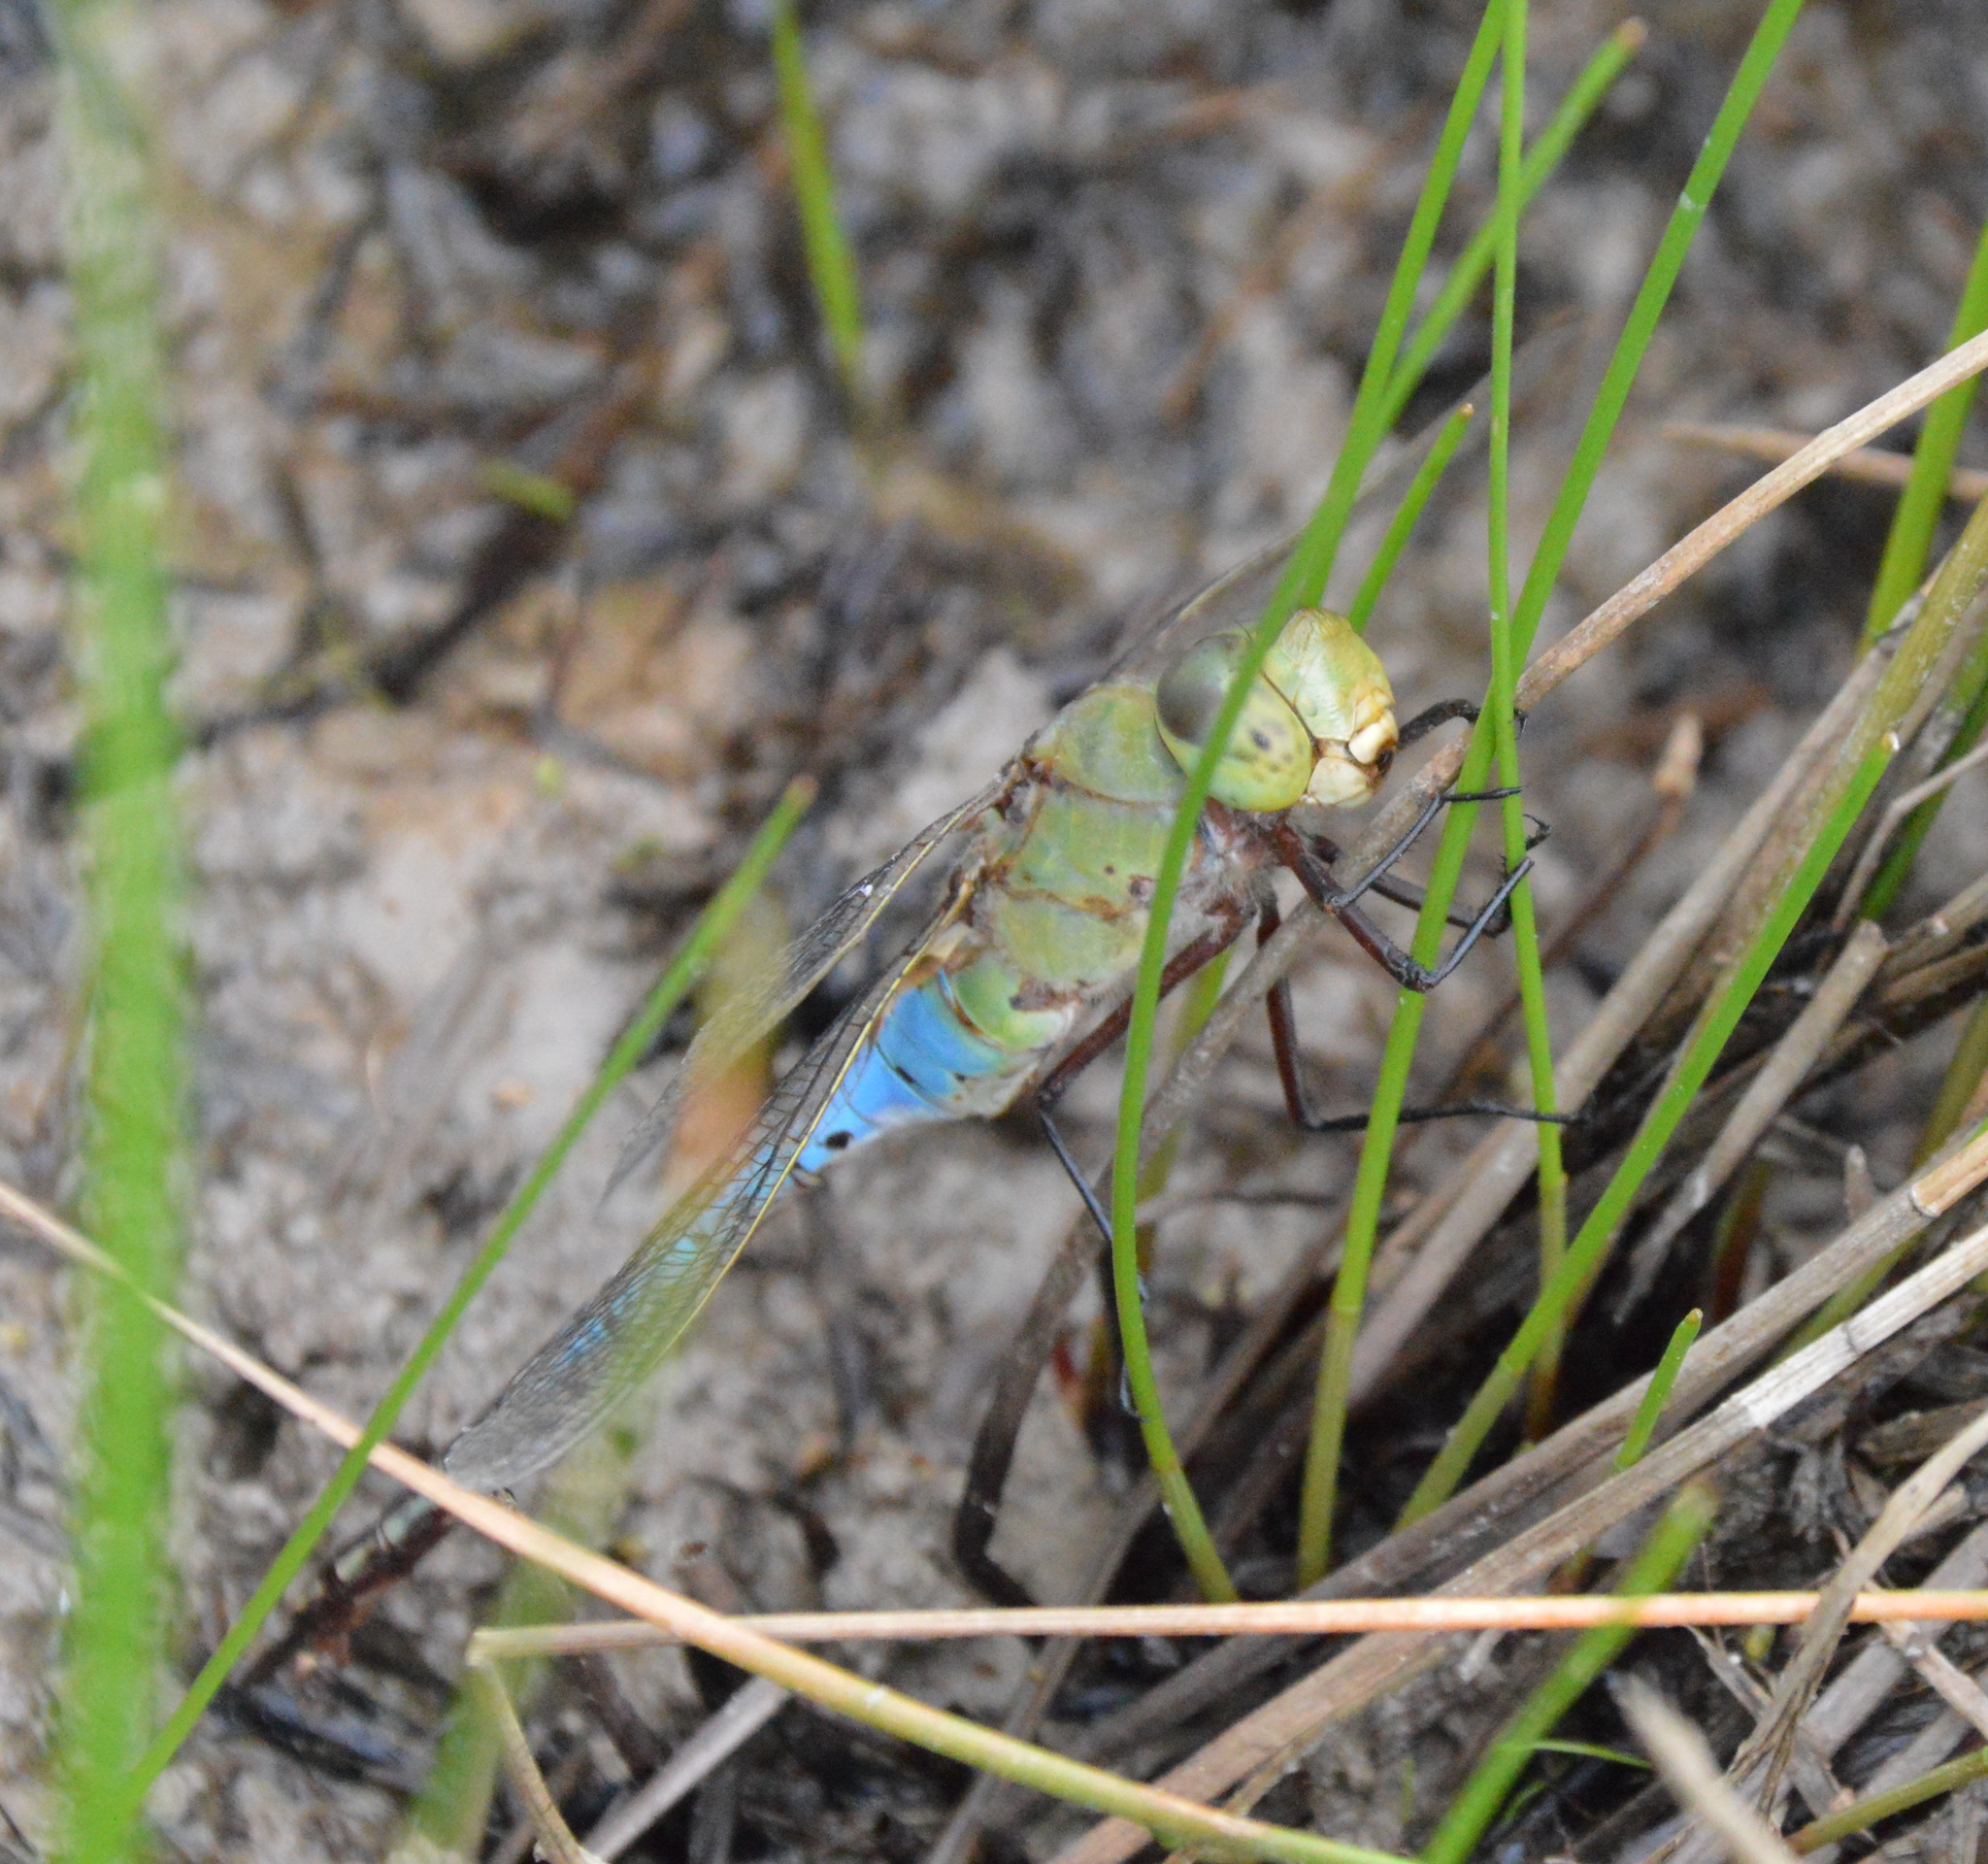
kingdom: Animalia
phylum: Arthropoda
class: Insecta
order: Odonata
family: Aeshnidae
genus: Anax
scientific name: Anax junius
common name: Common green darner
